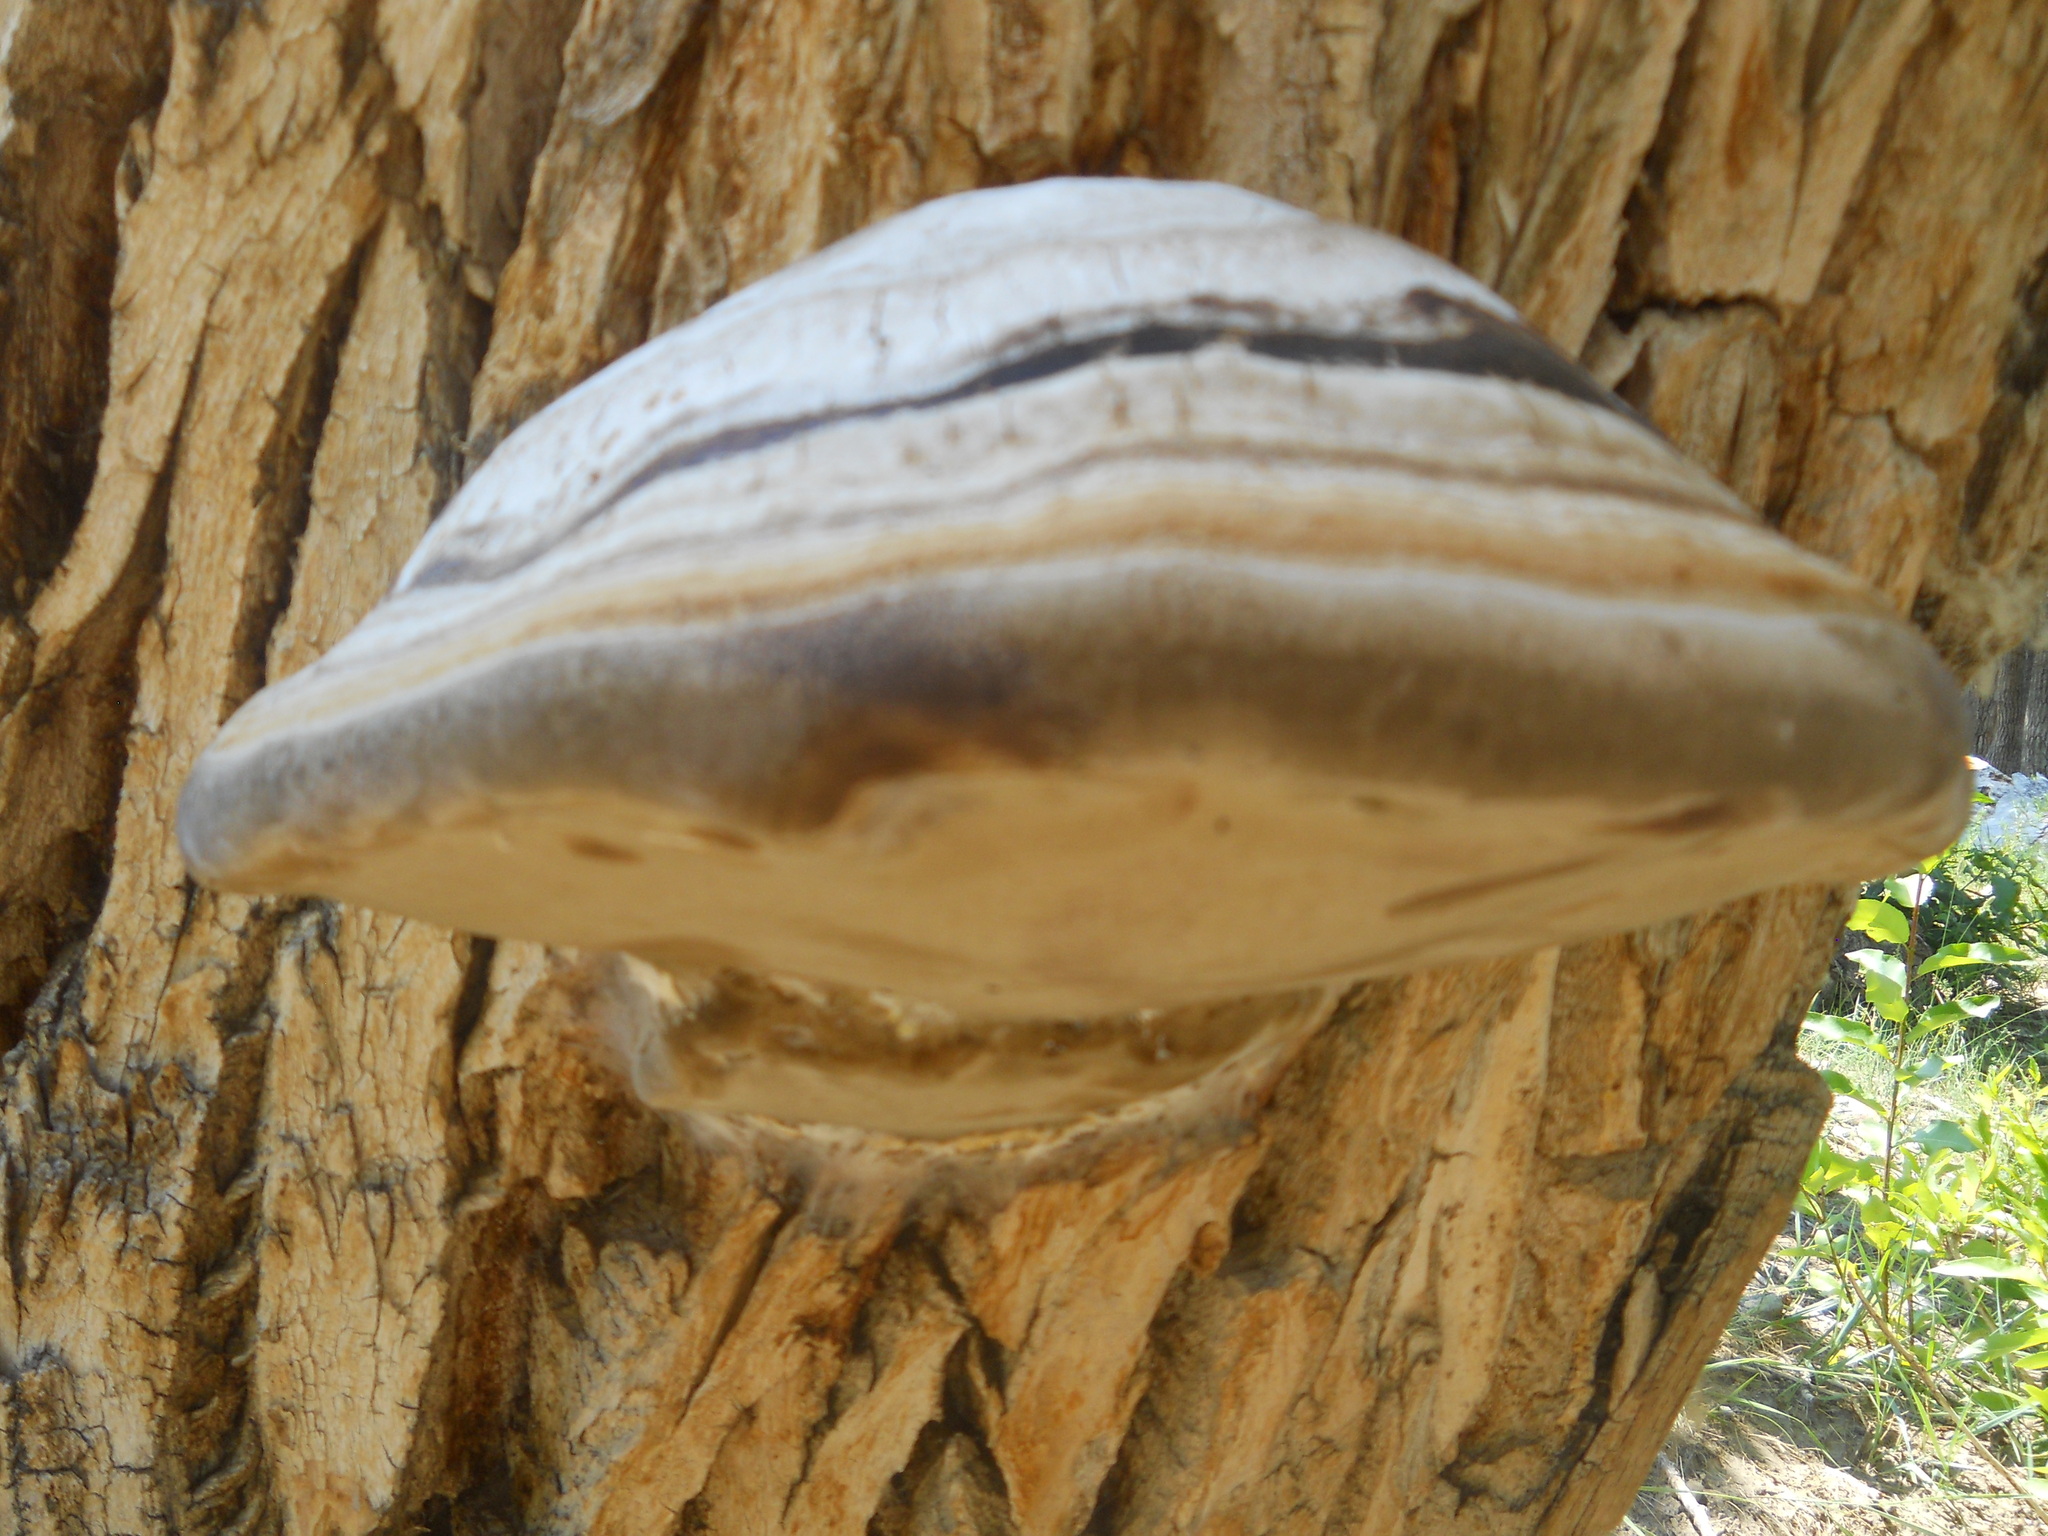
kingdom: Fungi
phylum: Basidiomycota
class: Agaricomycetes
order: Polyporales
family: Polyporaceae
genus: Fomes
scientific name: Fomes fomentarius
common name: Hoof fungus
